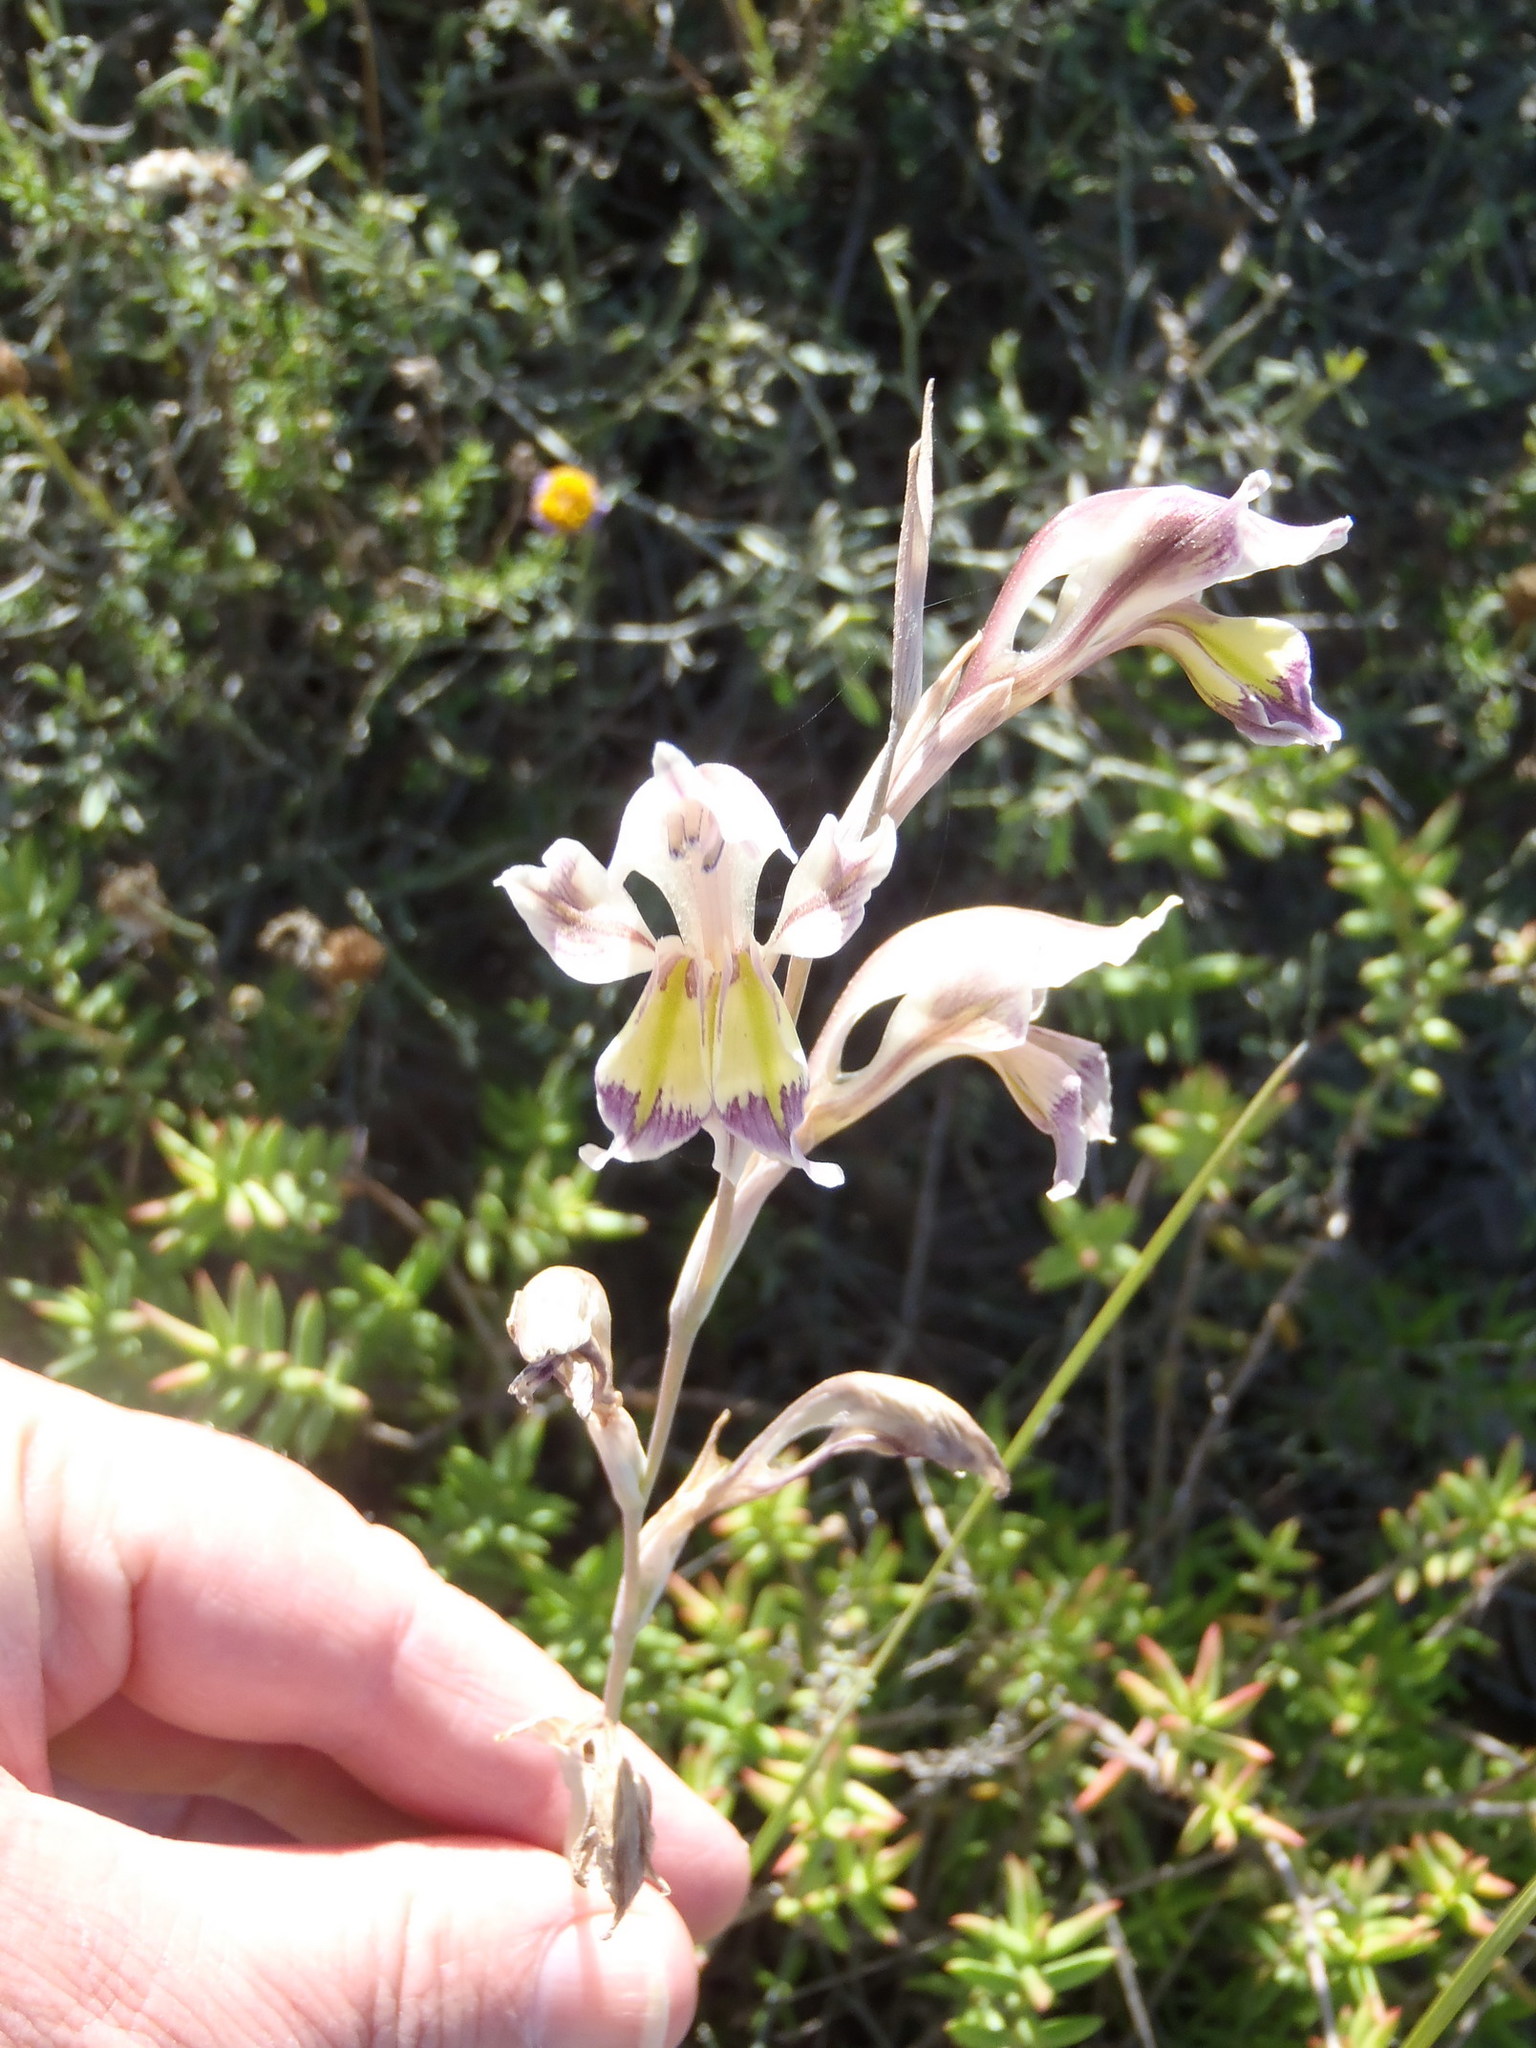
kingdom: Plantae
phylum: Tracheophyta
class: Liliopsida
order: Asparagales
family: Iridaceae
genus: Gladiolus
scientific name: Gladiolus permeabilis
